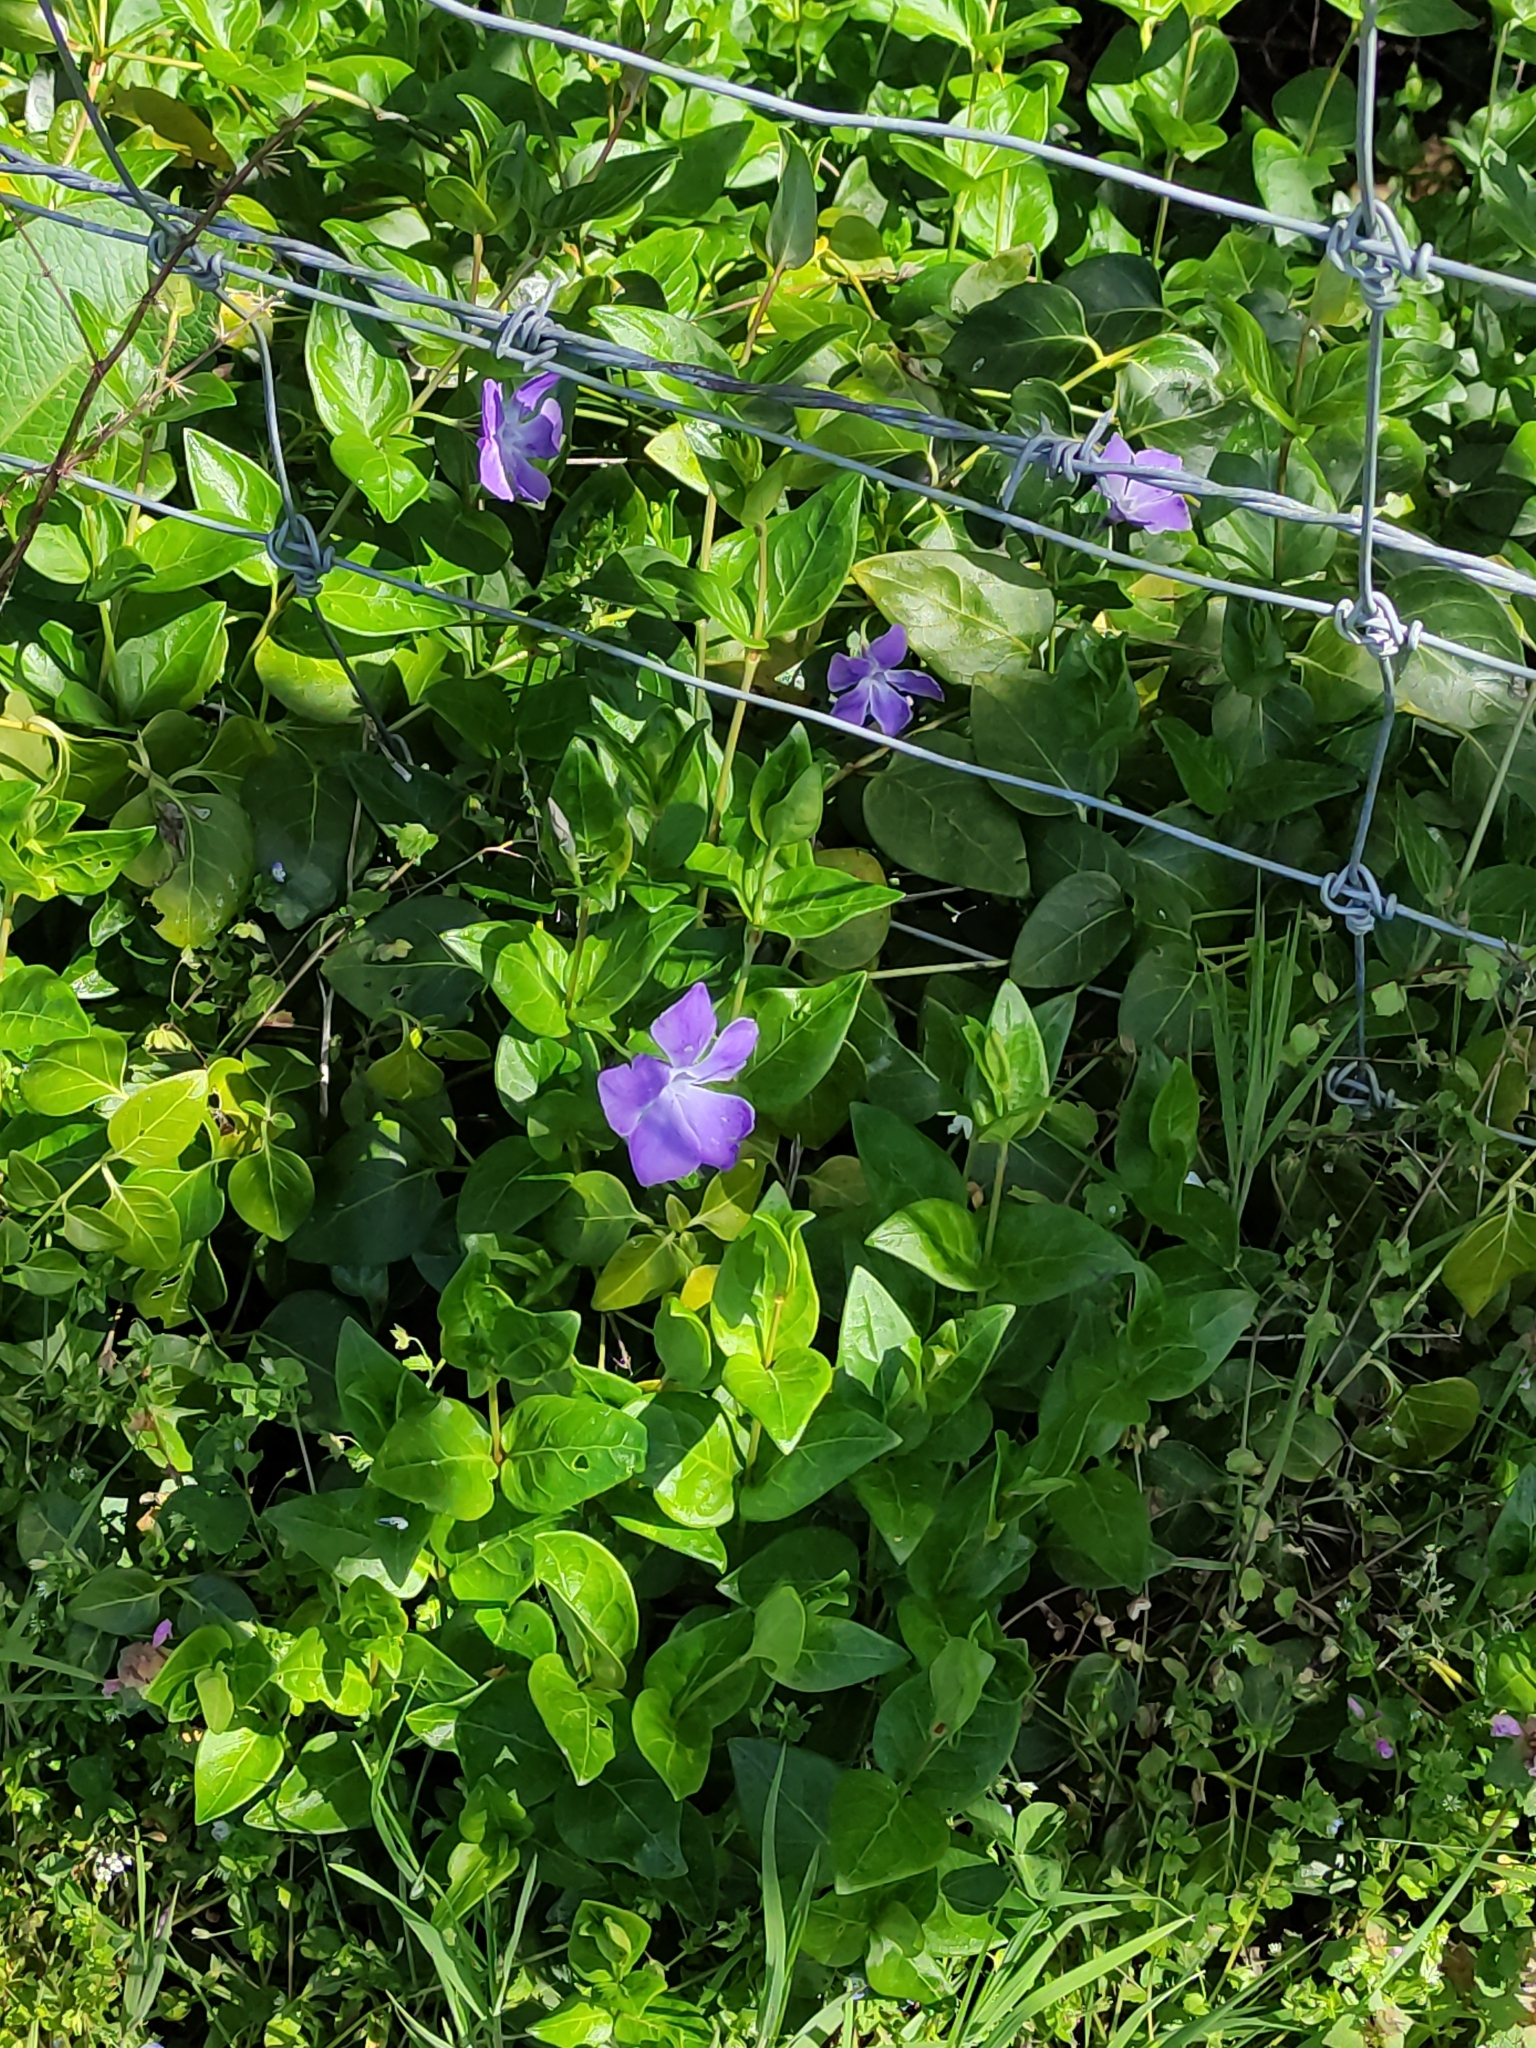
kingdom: Plantae
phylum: Tracheophyta
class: Magnoliopsida
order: Gentianales
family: Apocynaceae
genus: Vinca
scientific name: Vinca major
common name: Greater periwinkle
